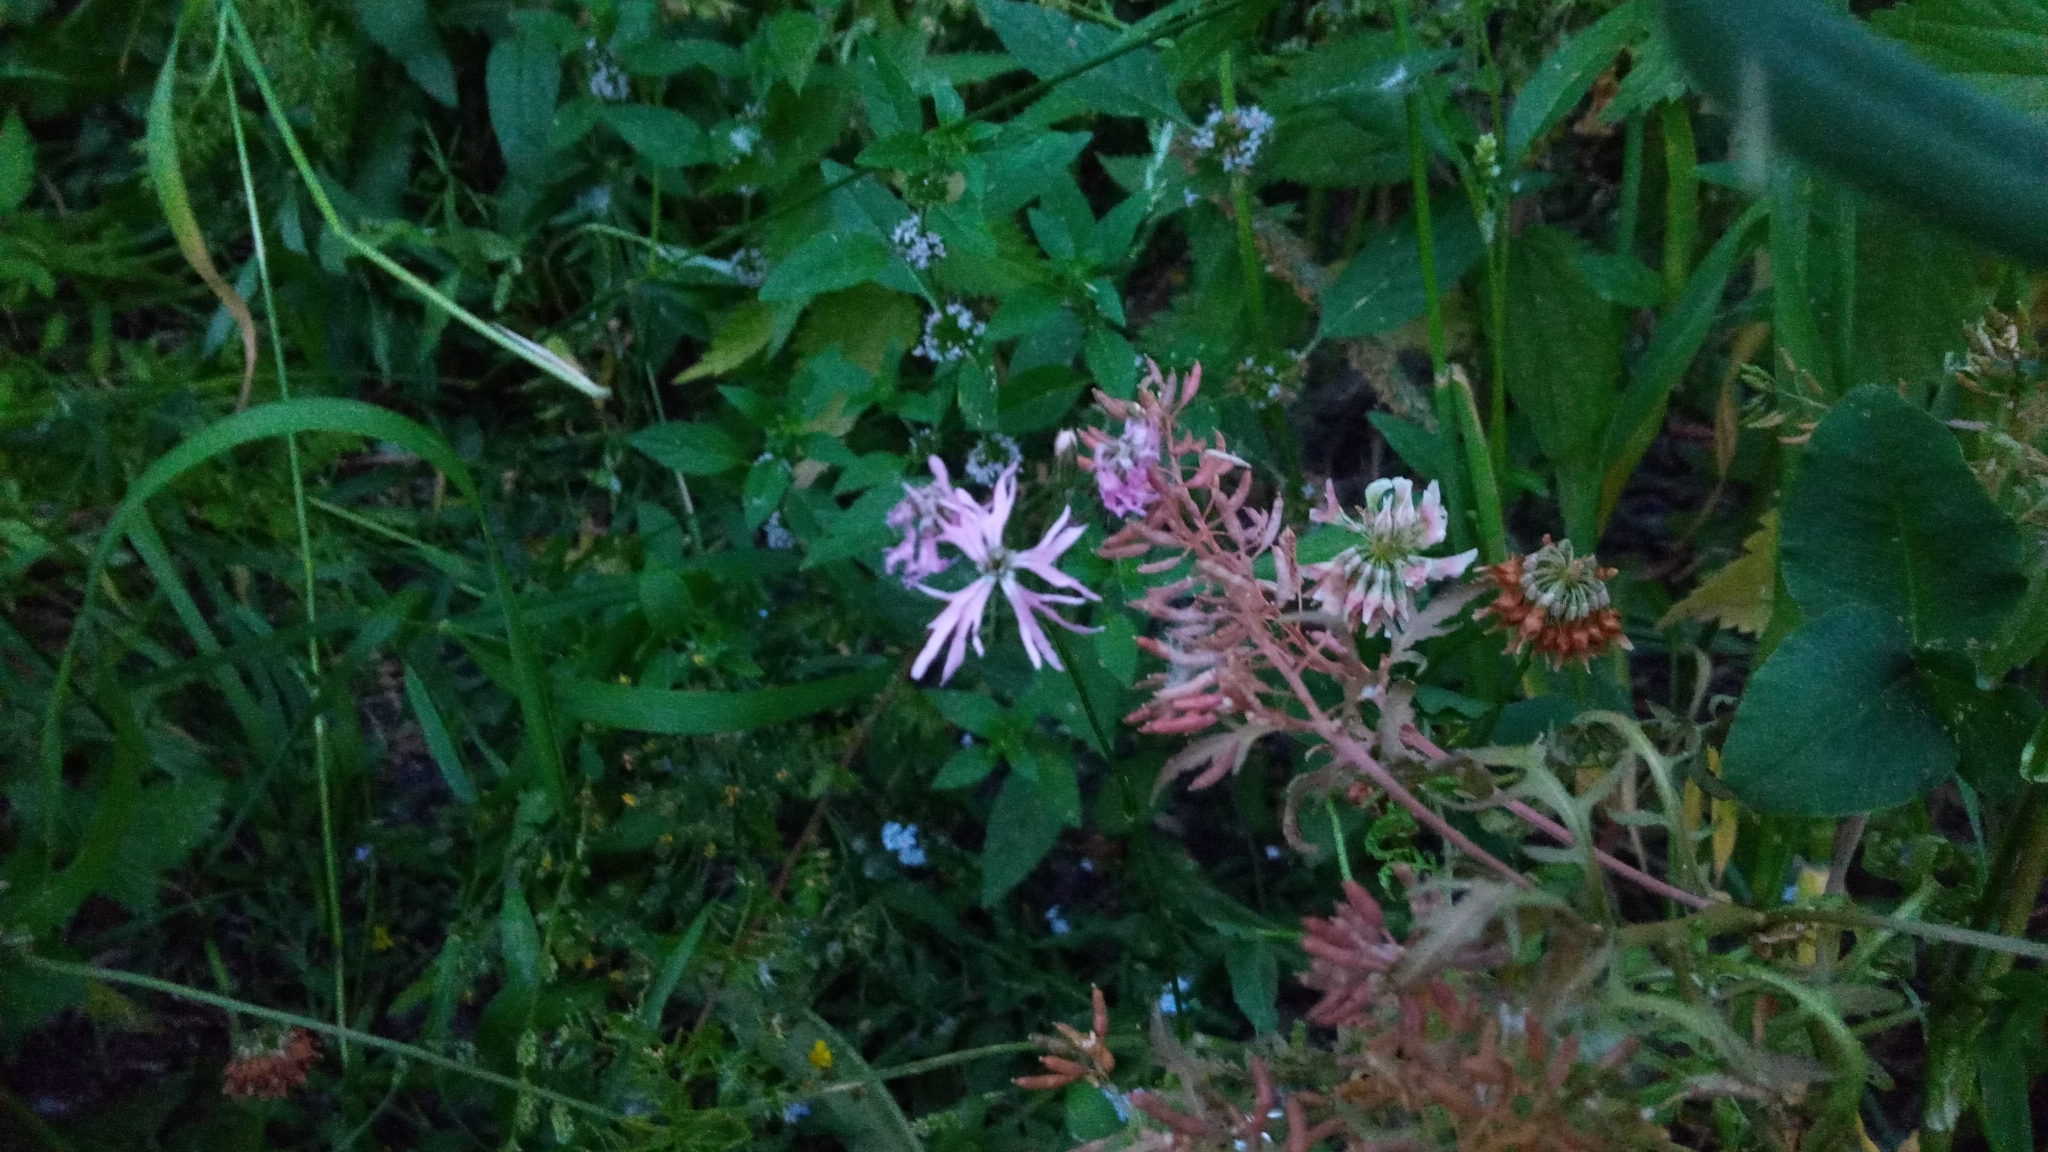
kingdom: Plantae
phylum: Tracheophyta
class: Magnoliopsida
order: Caryophyllales
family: Caryophyllaceae
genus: Silene
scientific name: Silene flos-cuculi
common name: Ragged-robin
